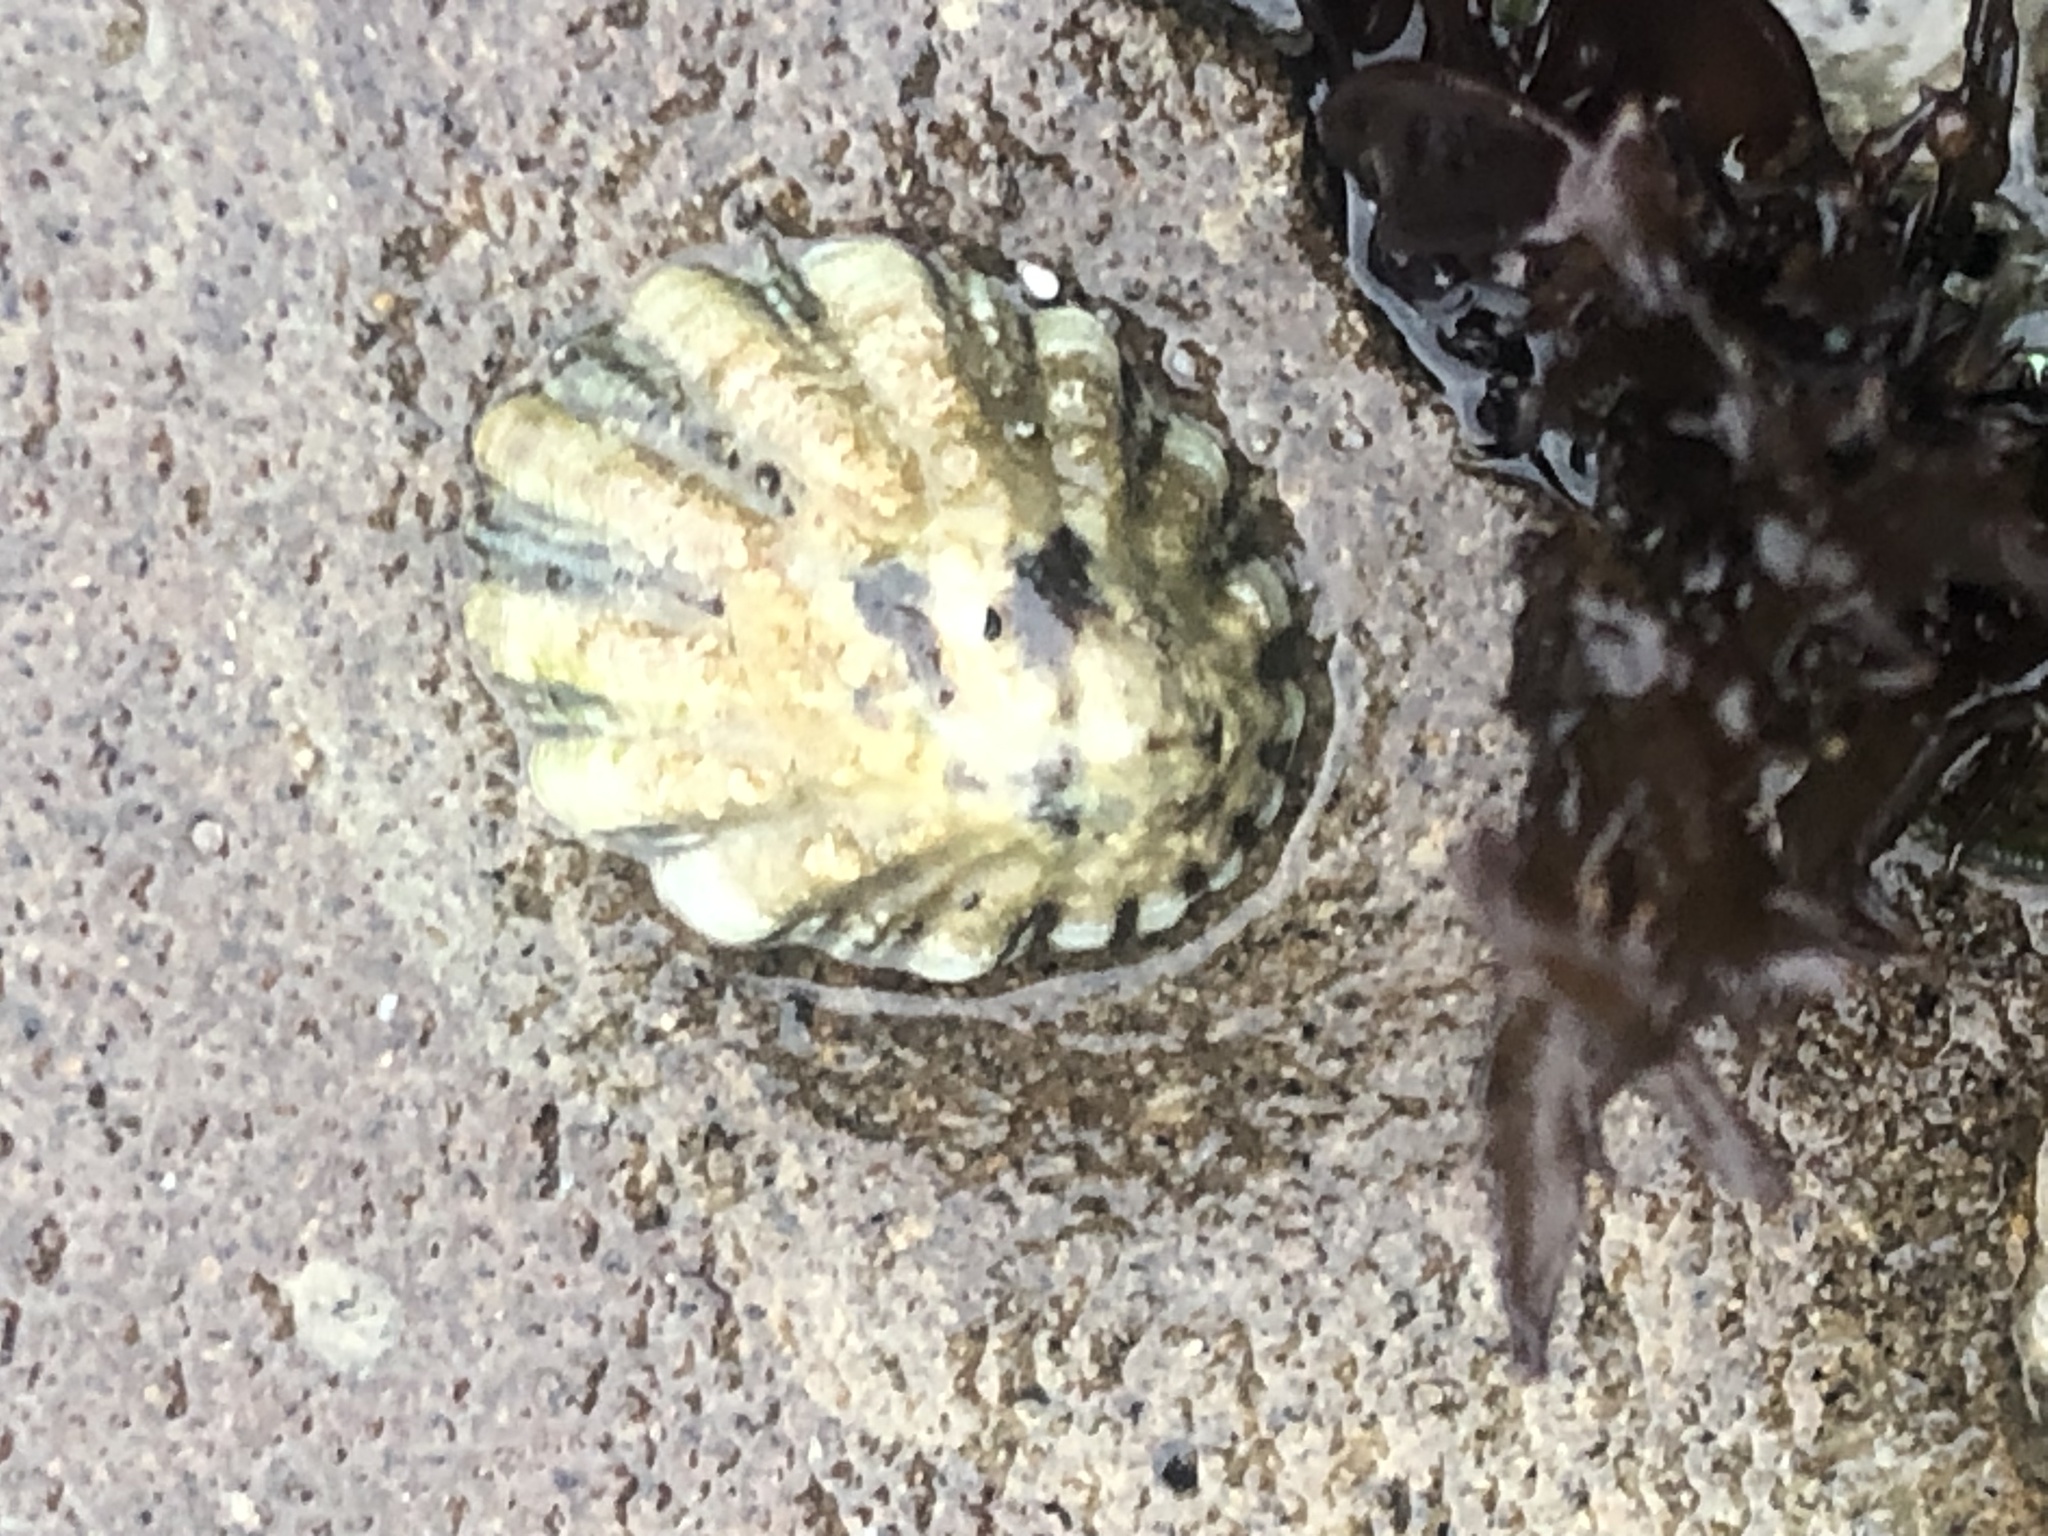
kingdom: Animalia
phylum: Mollusca
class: Gastropoda
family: Lottiidae
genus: Lottia
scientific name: Lottia scabra
